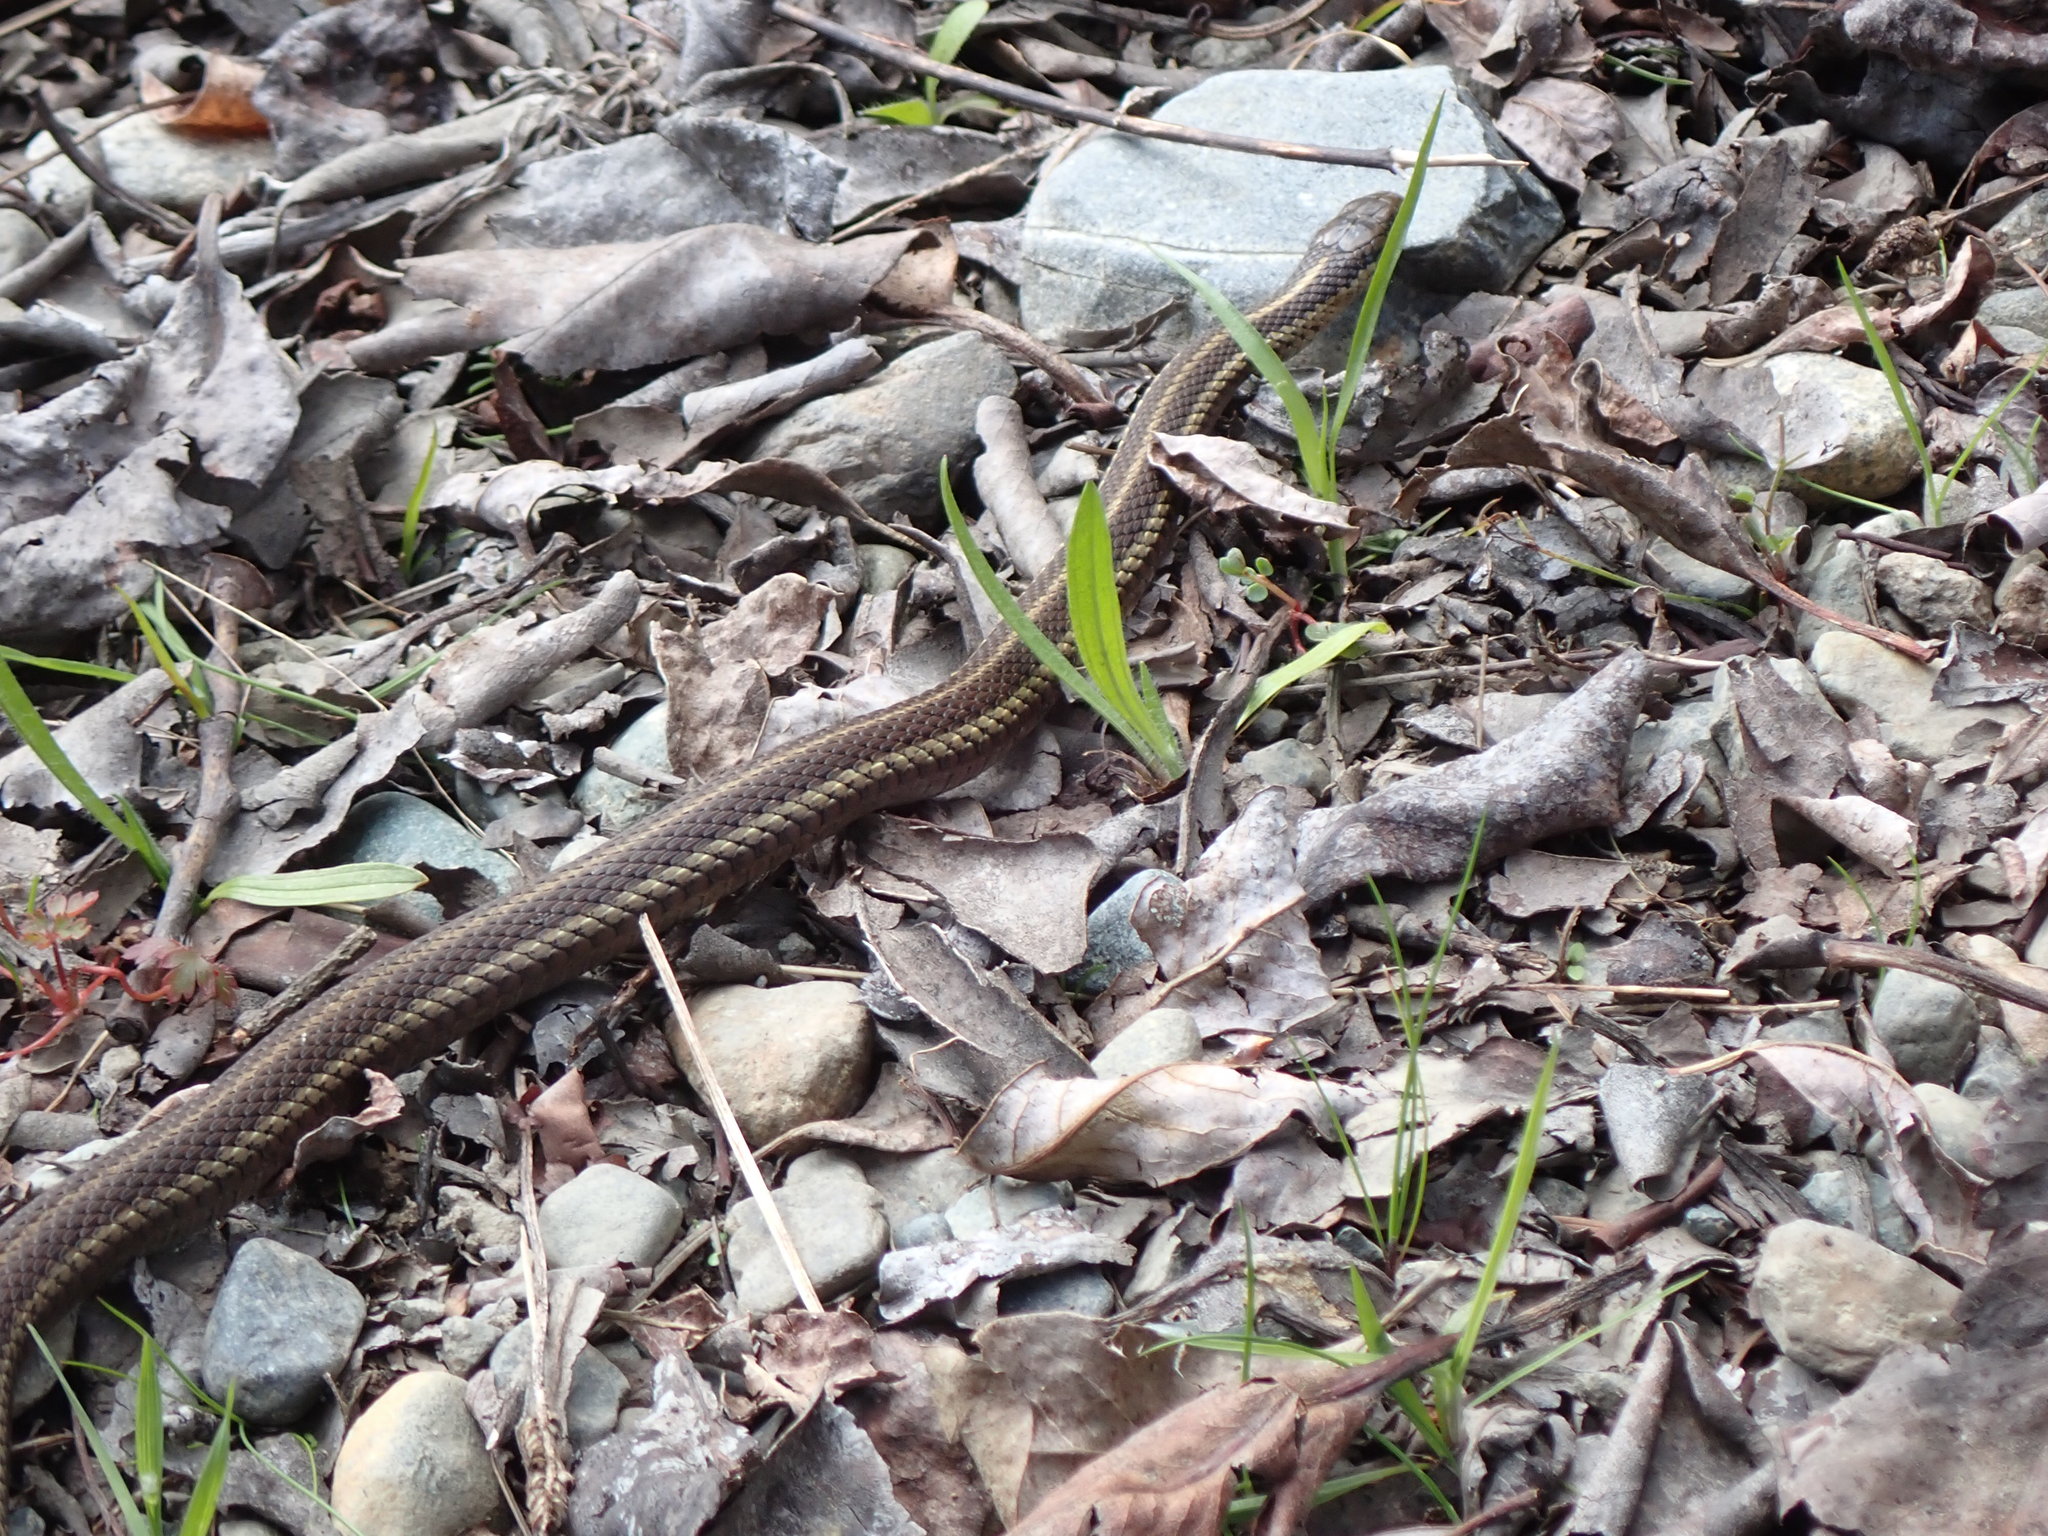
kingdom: Animalia
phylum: Chordata
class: Squamata
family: Colubridae
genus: Thamnophis
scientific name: Thamnophis ordinoides
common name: Northwestern garter snake
